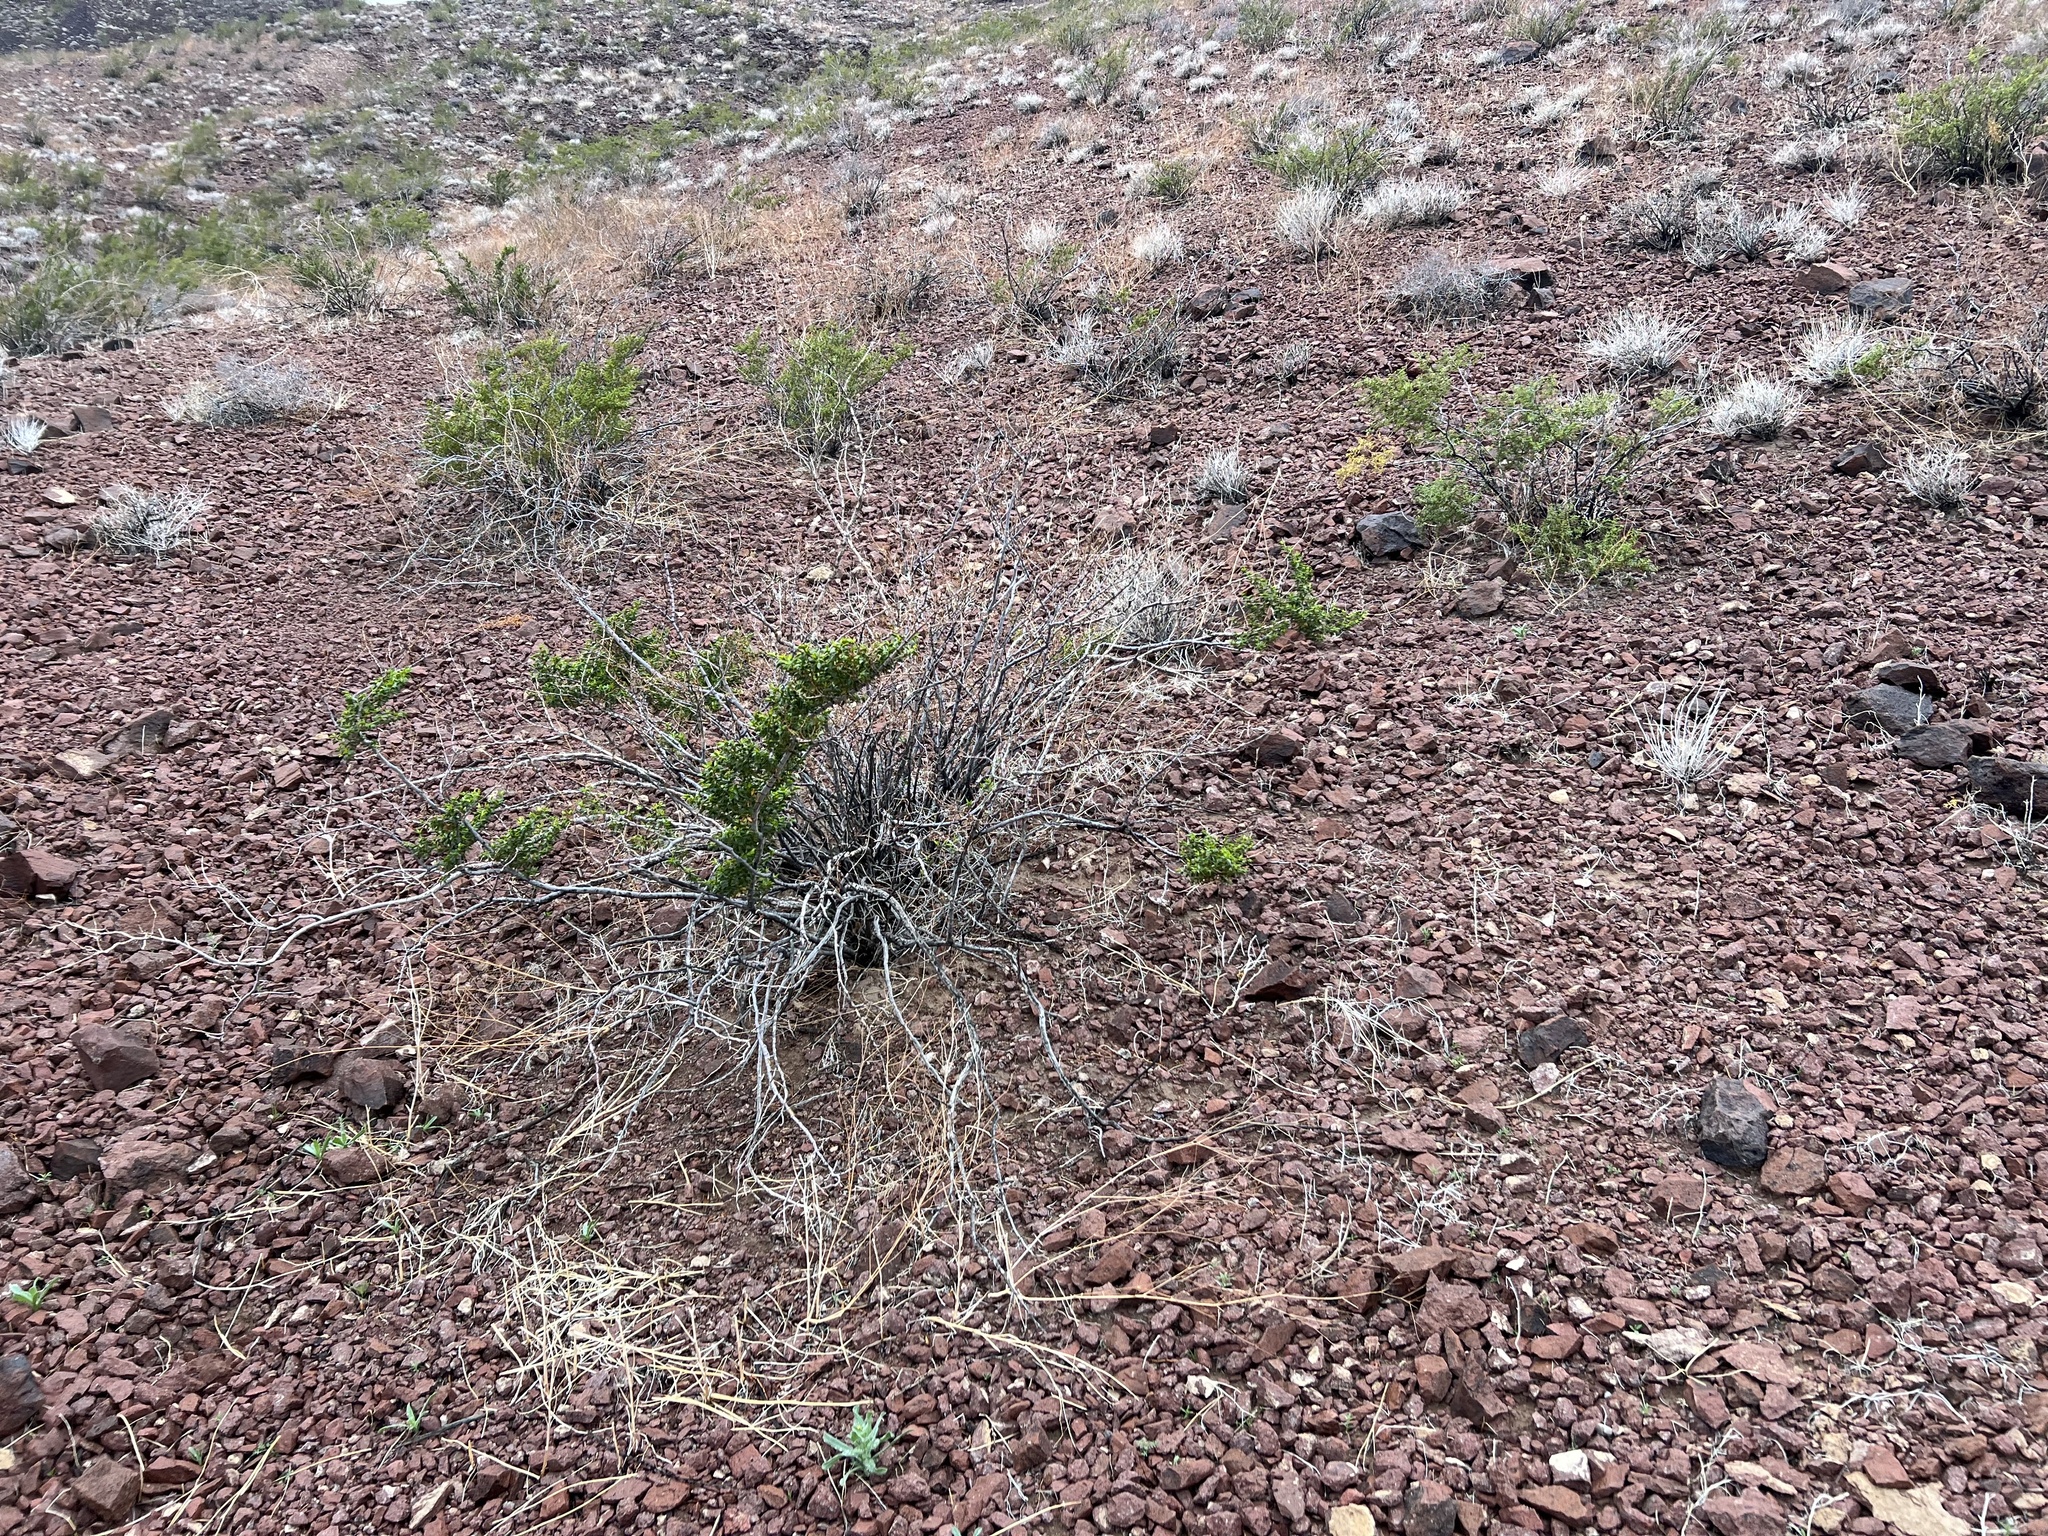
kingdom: Plantae
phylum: Tracheophyta
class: Magnoliopsida
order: Zygophyllales
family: Zygophyllaceae
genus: Larrea
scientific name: Larrea tridentata
